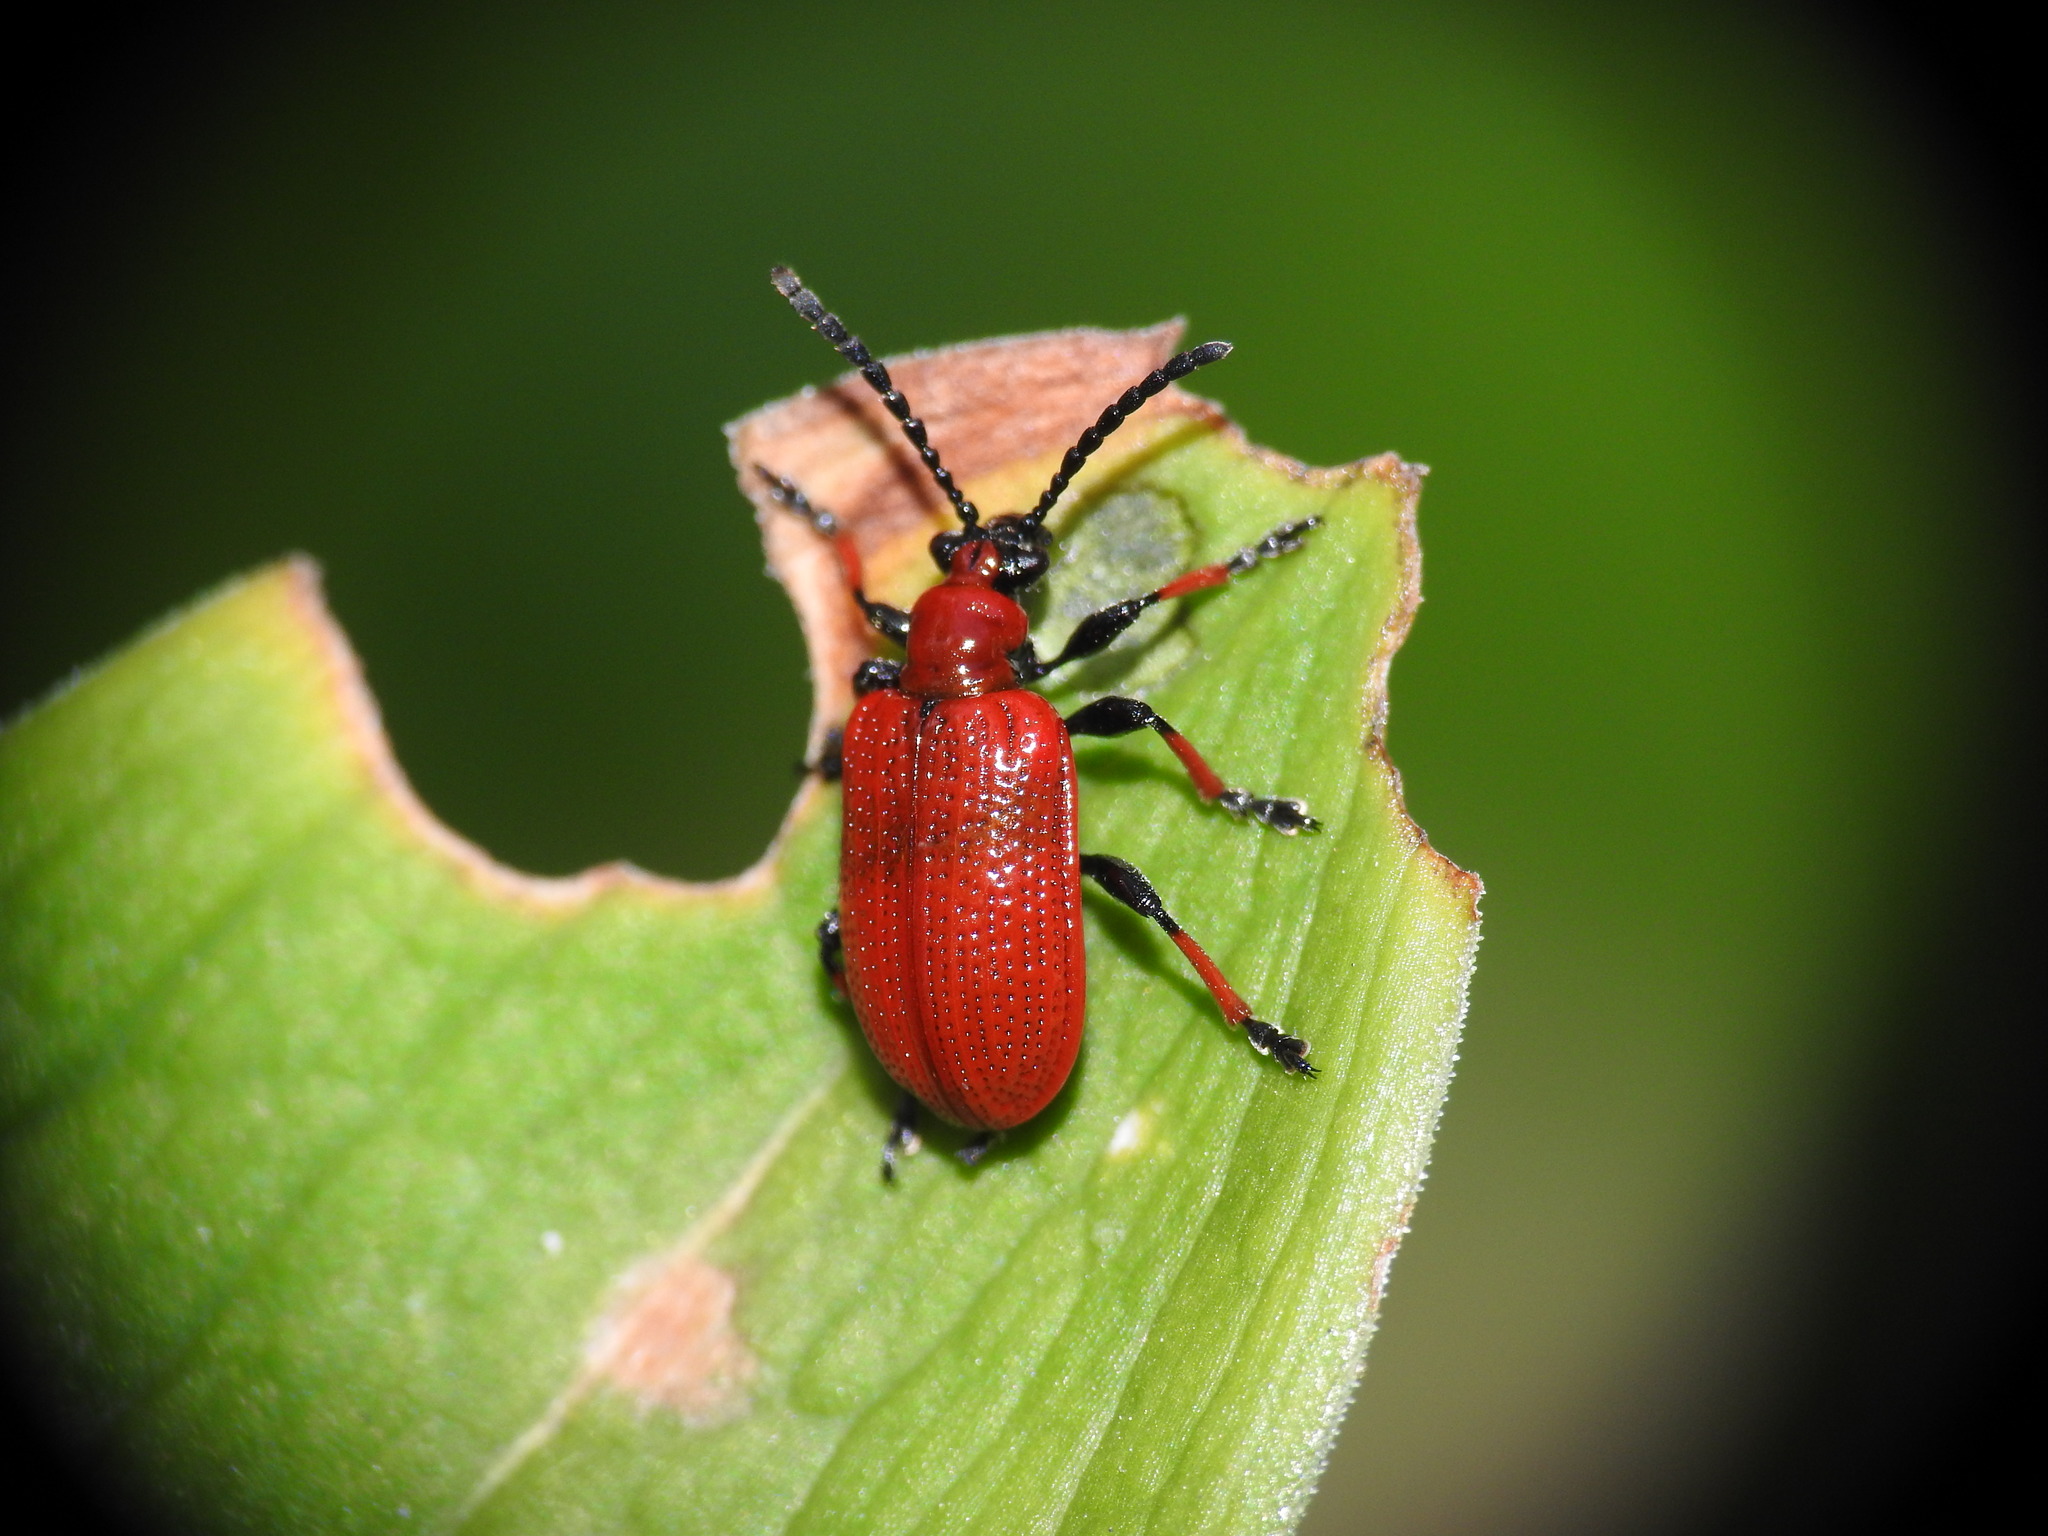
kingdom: Animalia
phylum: Arthropoda
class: Insecta
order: Coleoptera
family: Chrysomelidae
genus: Lilioceris
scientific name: Lilioceris lilii
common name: Lily beetle
